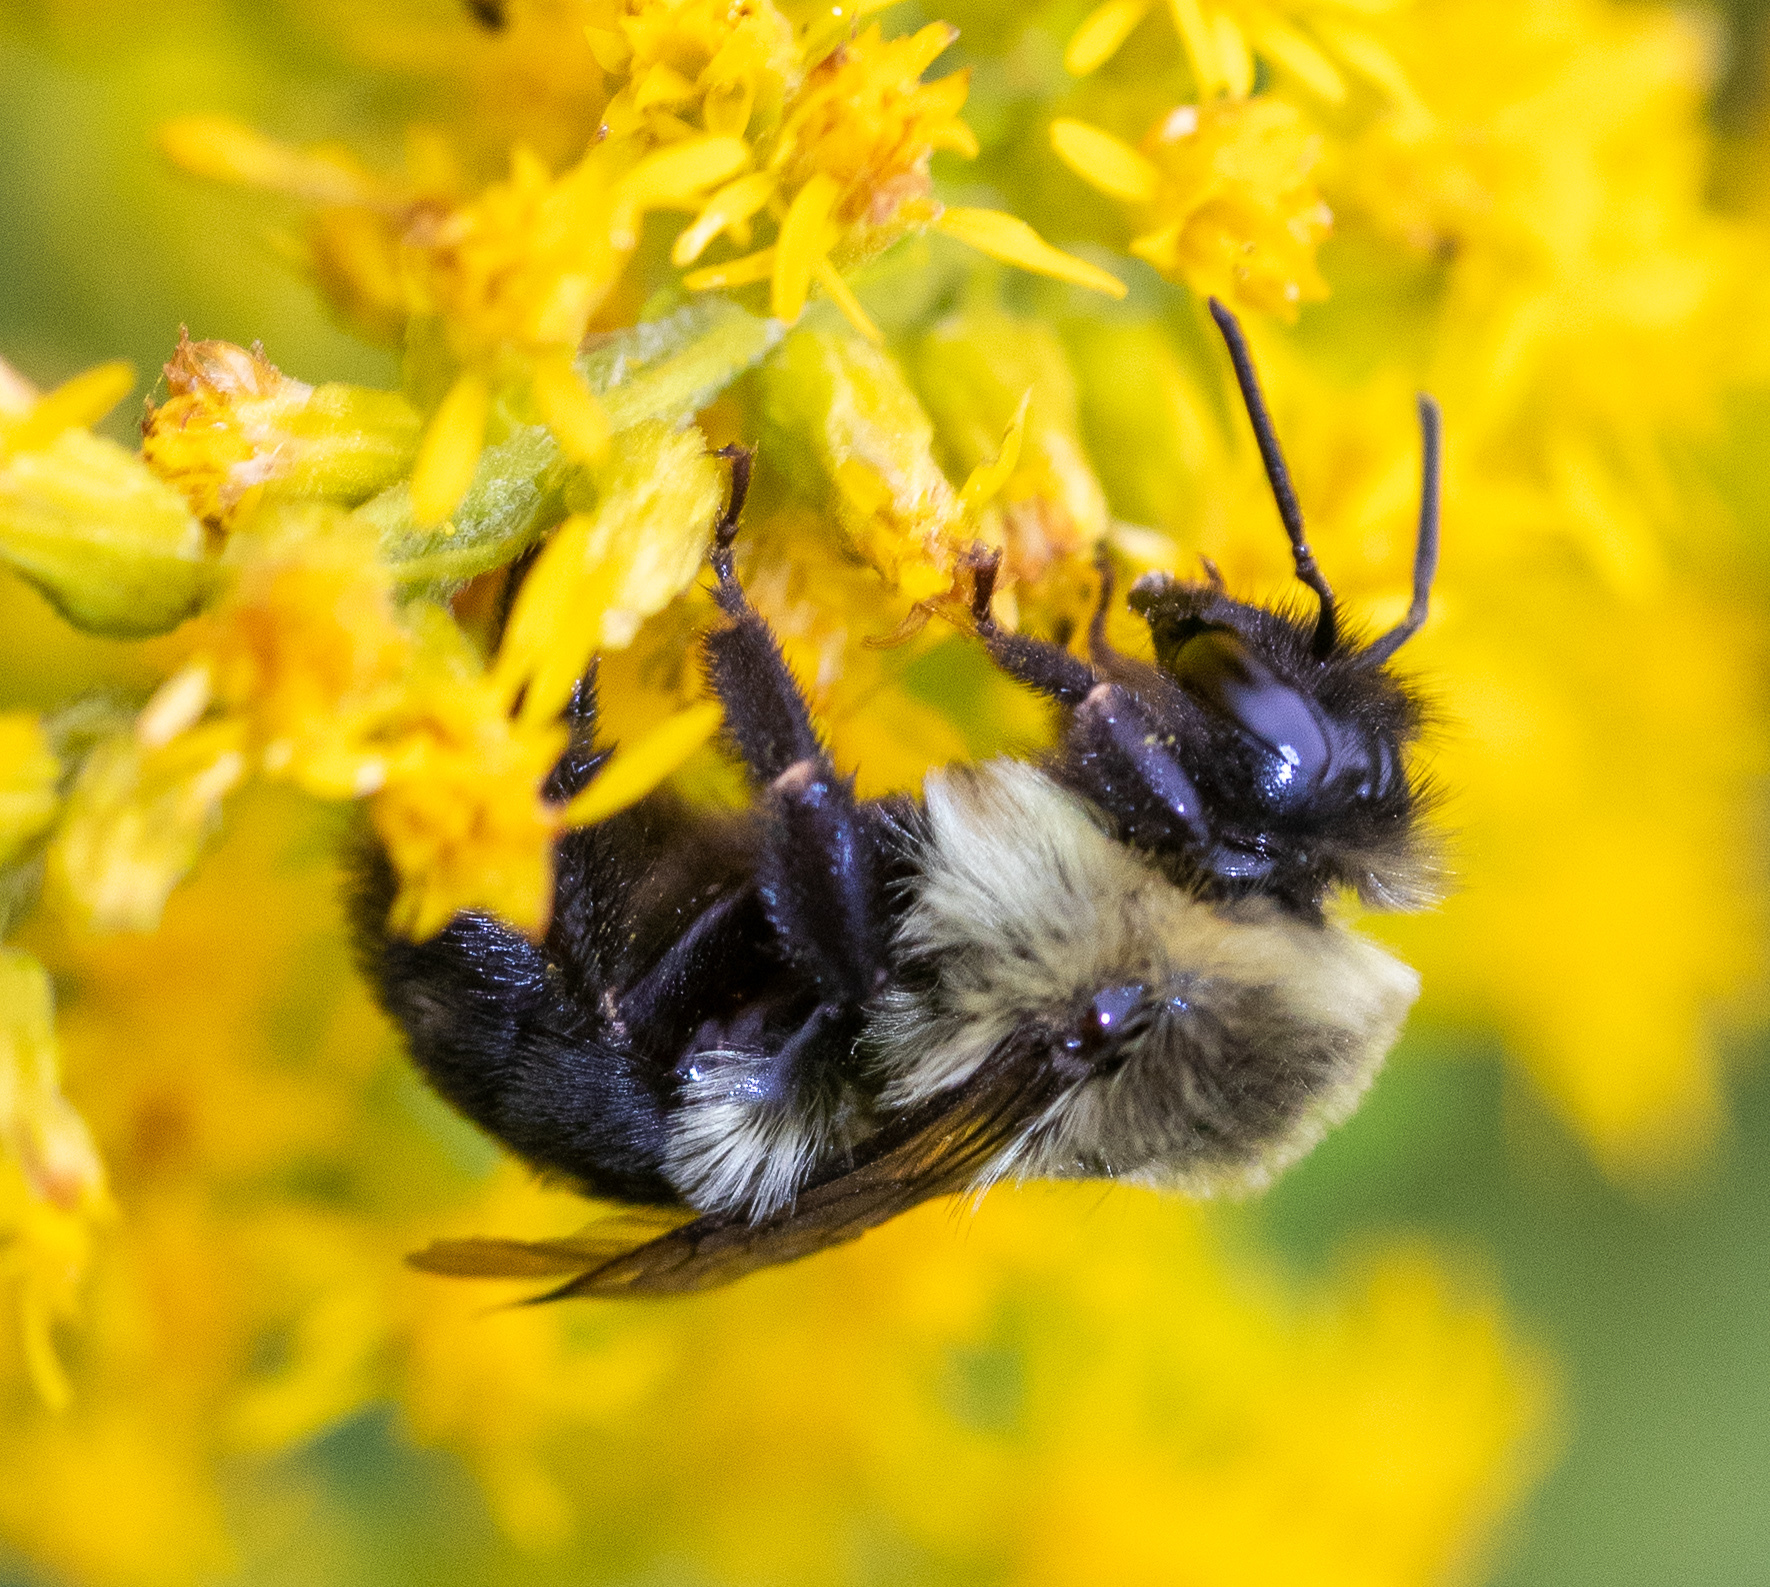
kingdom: Animalia
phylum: Arthropoda
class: Insecta
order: Hymenoptera
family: Apidae
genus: Bombus
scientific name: Bombus impatiens
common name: Common eastern bumble bee
